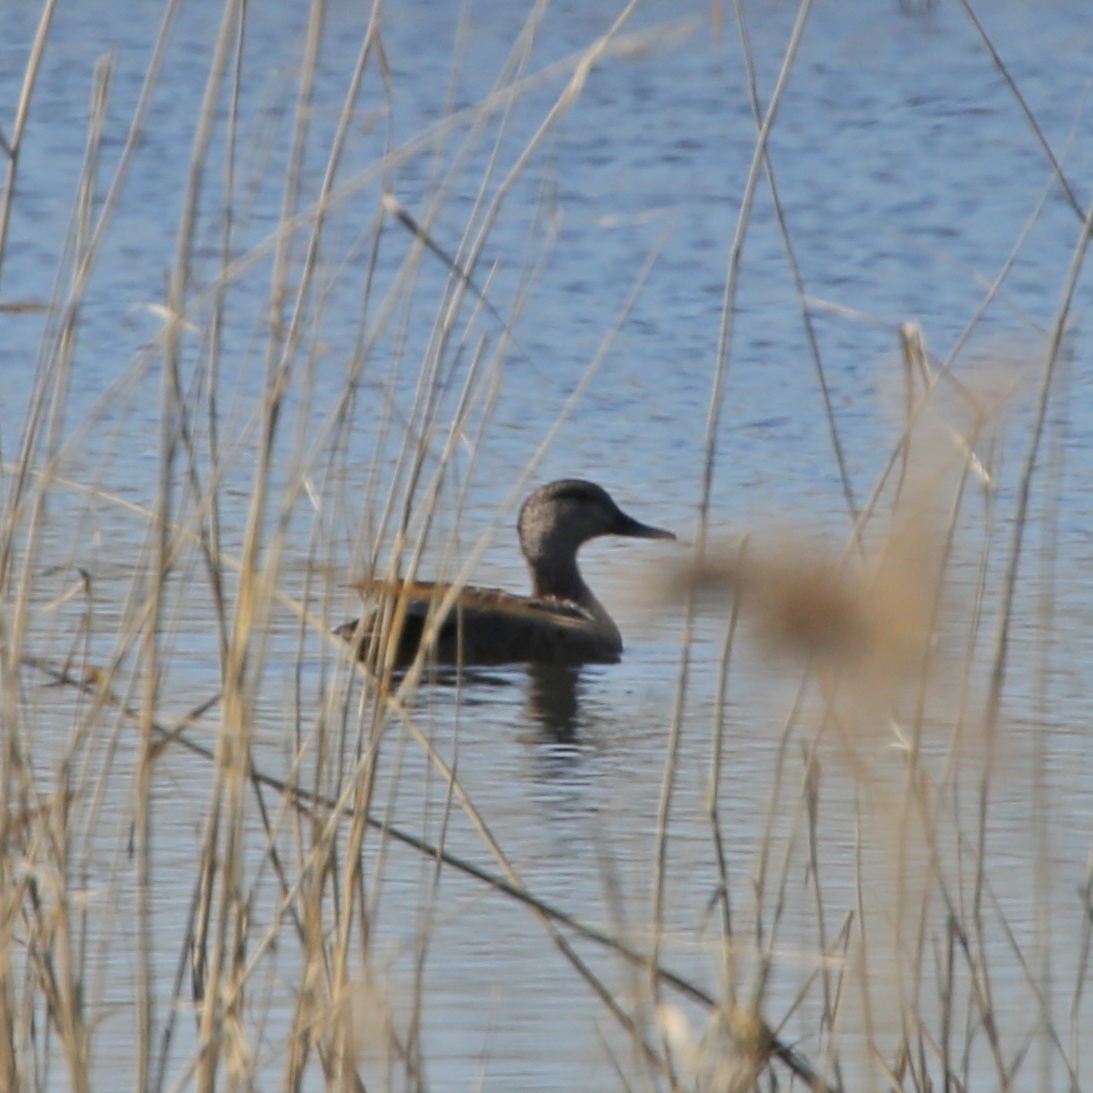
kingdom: Animalia
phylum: Chordata
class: Aves
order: Anseriformes
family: Anatidae
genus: Mareca
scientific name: Mareca strepera
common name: Gadwall
